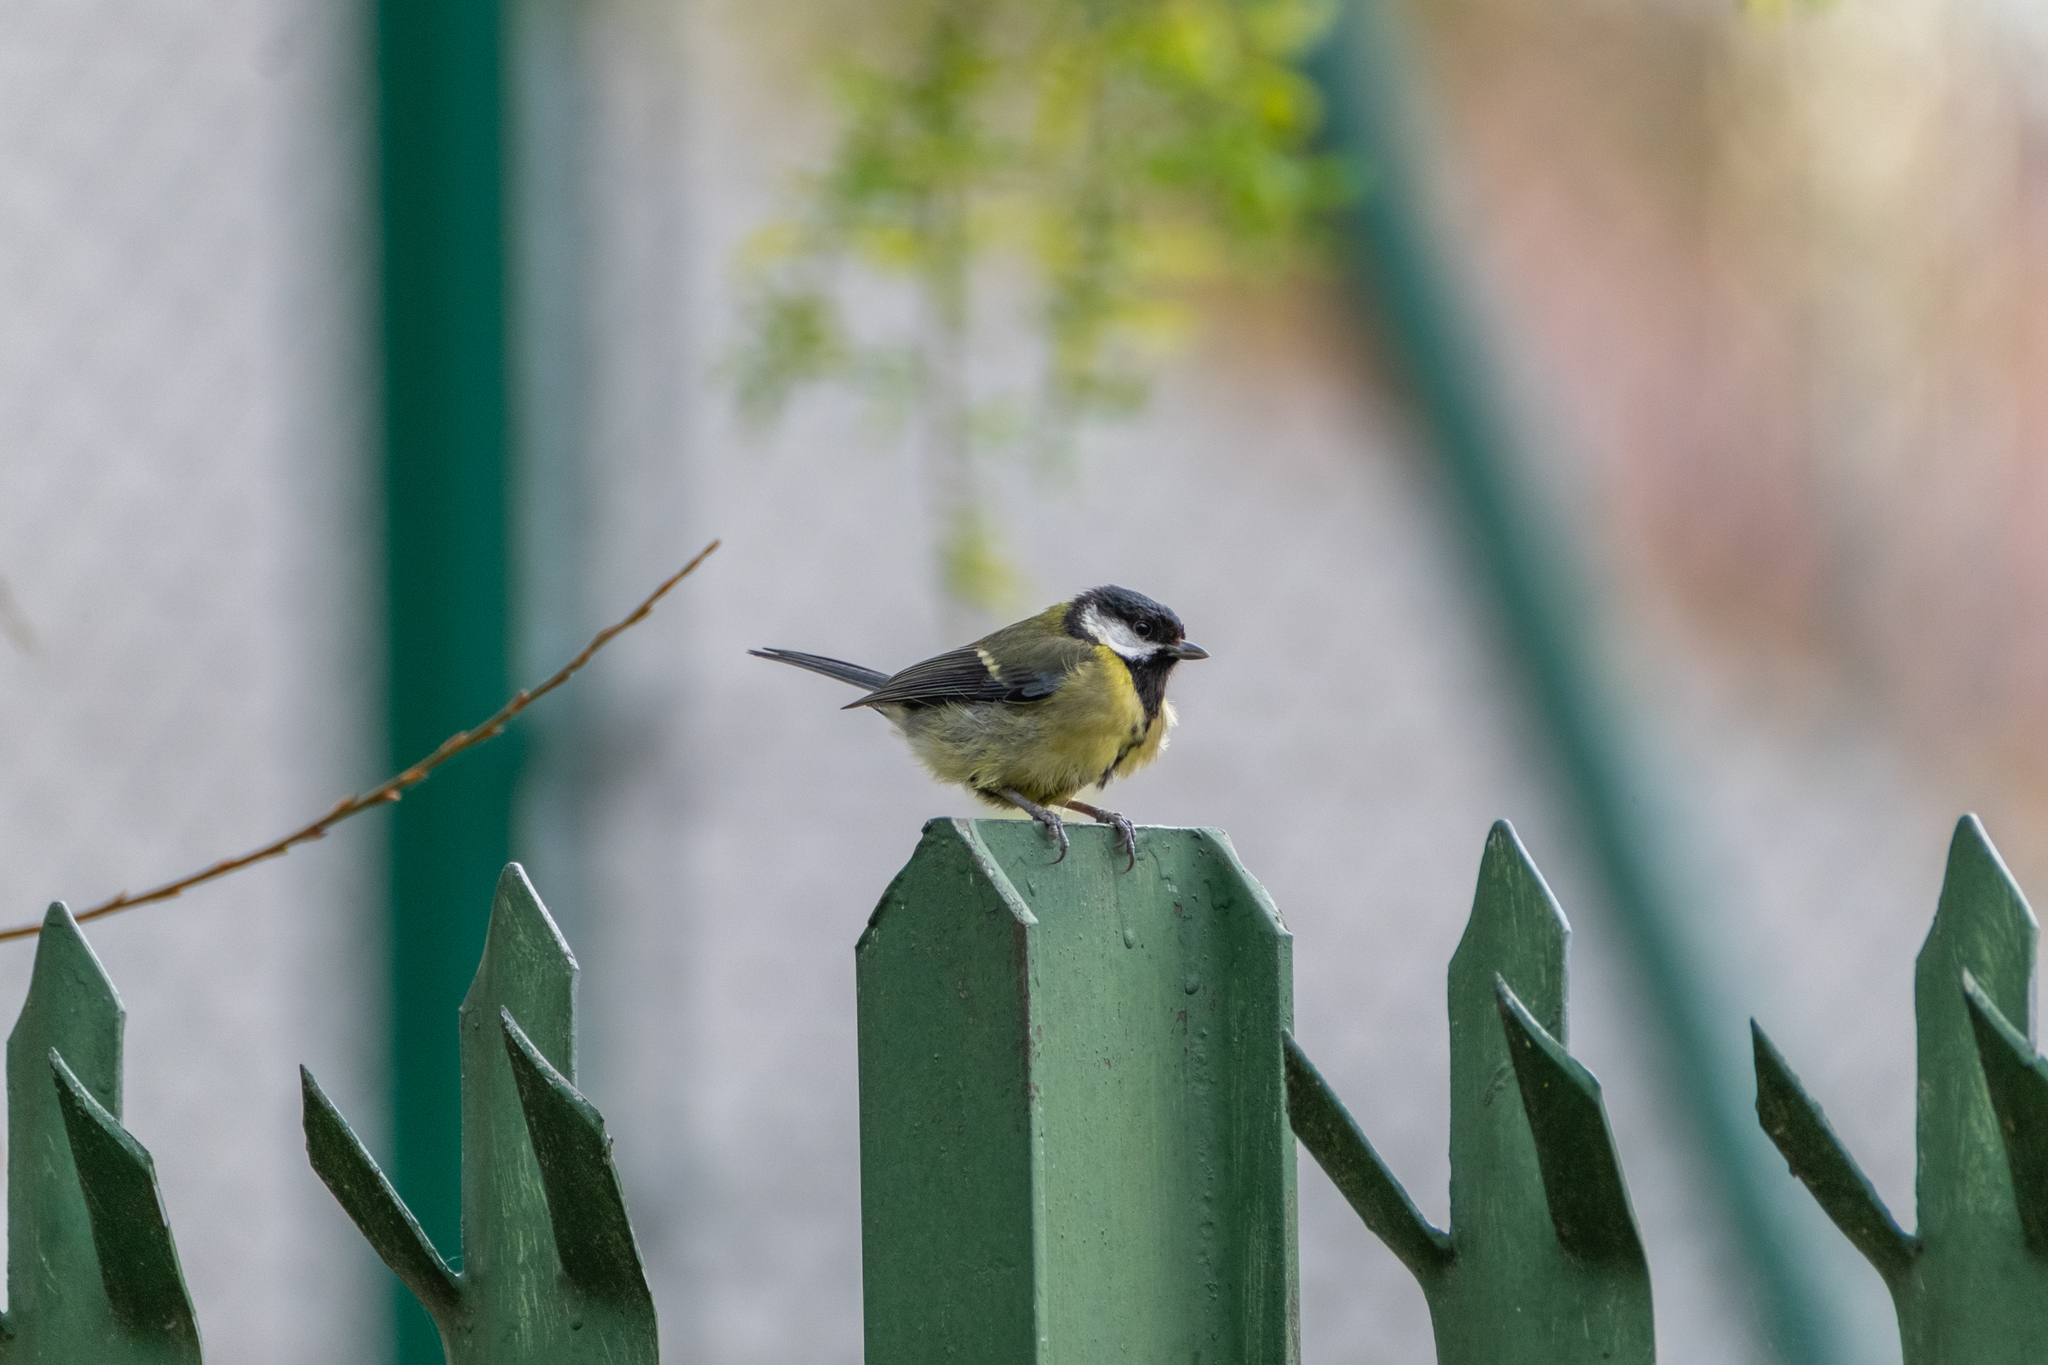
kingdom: Animalia
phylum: Chordata
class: Aves
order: Passeriformes
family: Paridae
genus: Parus
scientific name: Parus major
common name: Great tit
